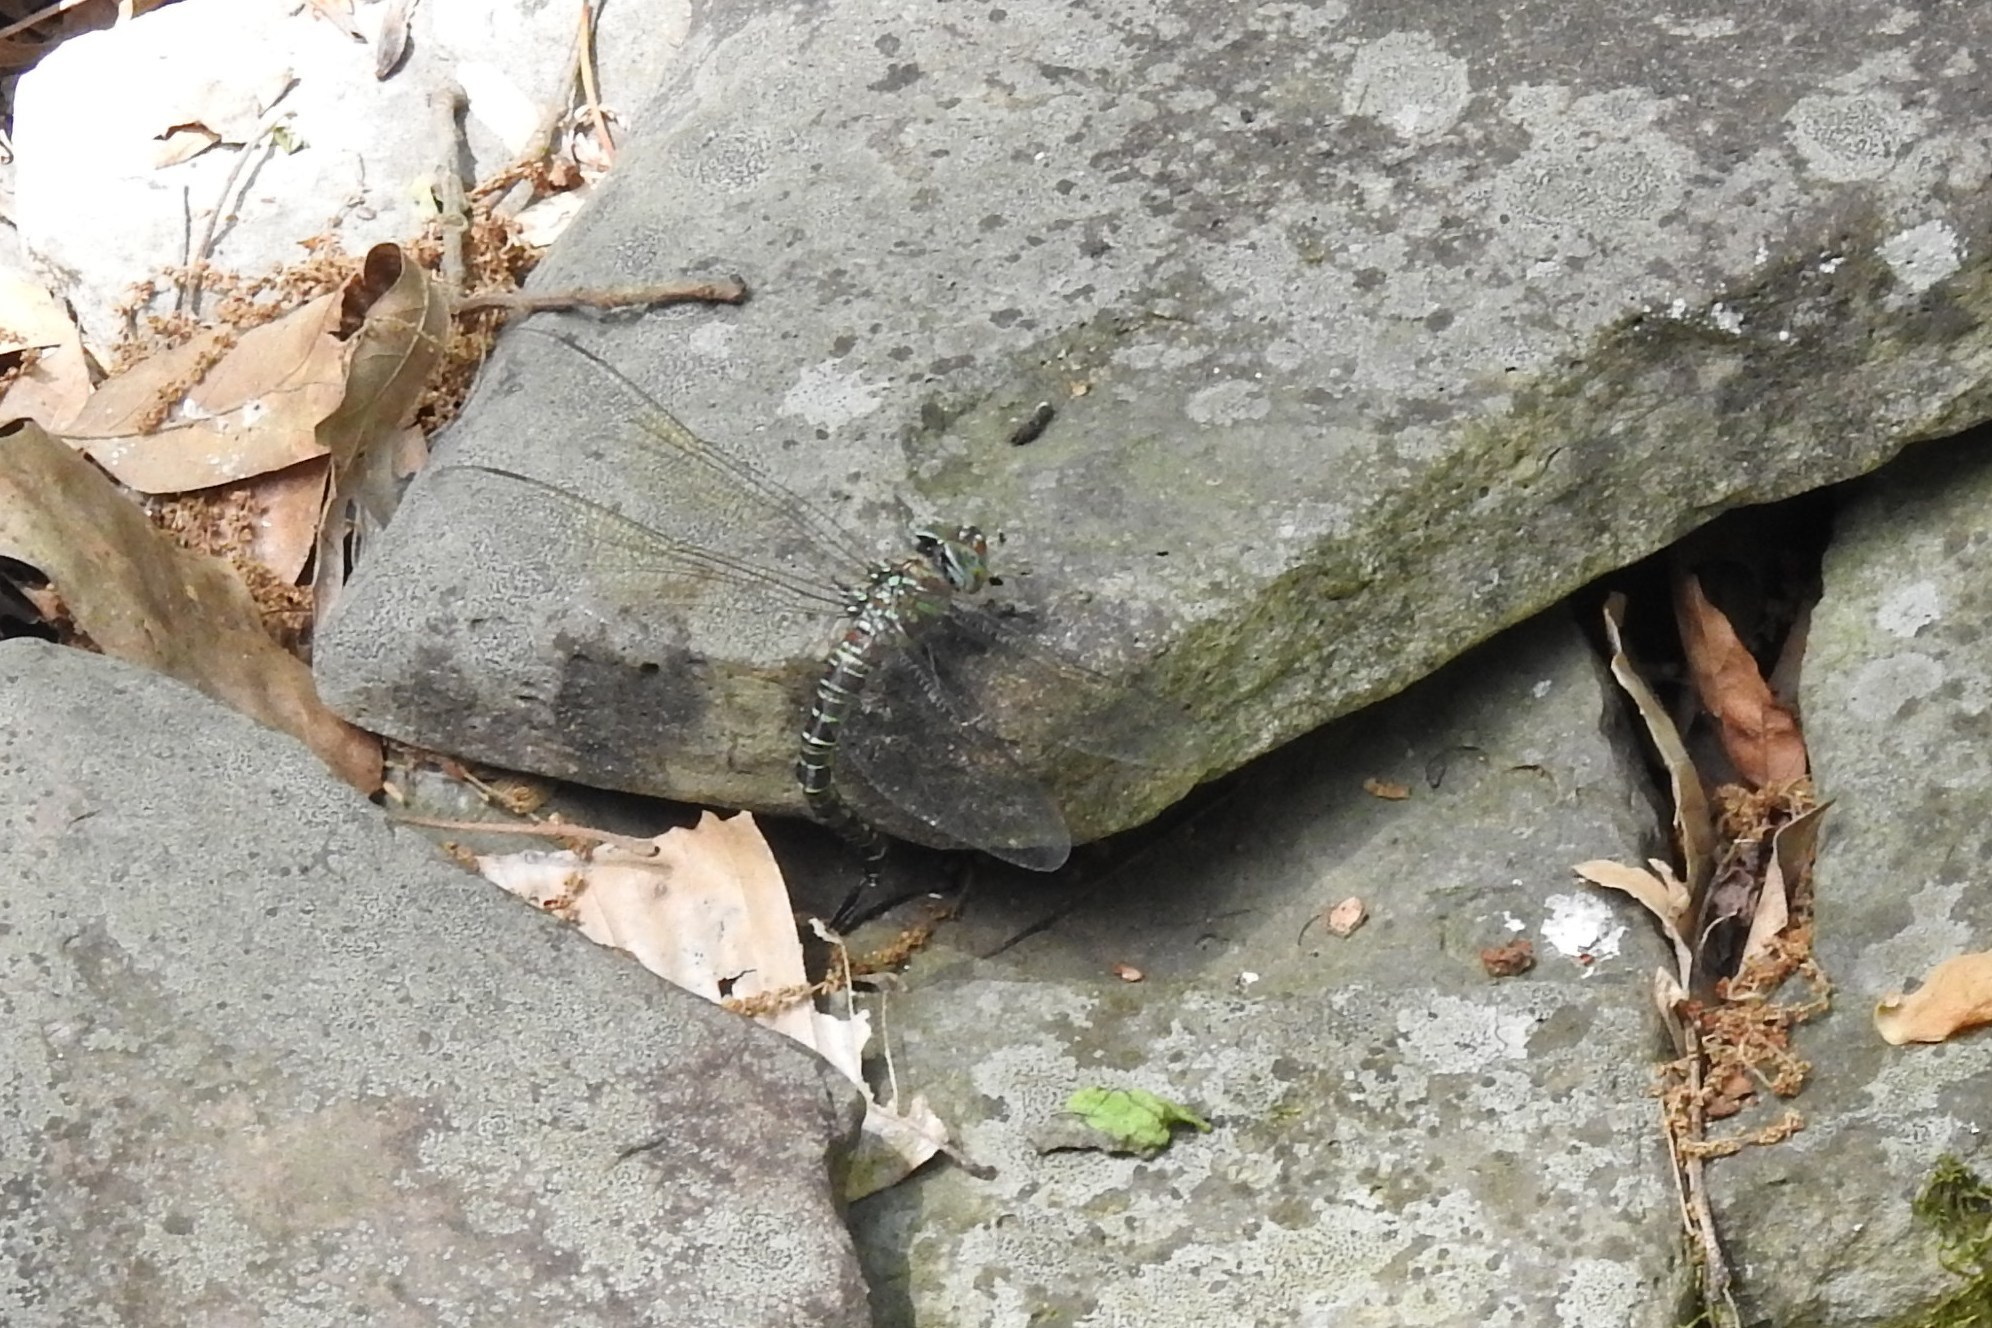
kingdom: Animalia
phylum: Arthropoda
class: Insecta
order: Odonata
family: Aeshnidae
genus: Epiaeschna
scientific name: Epiaeschna heros
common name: Swamp darner
